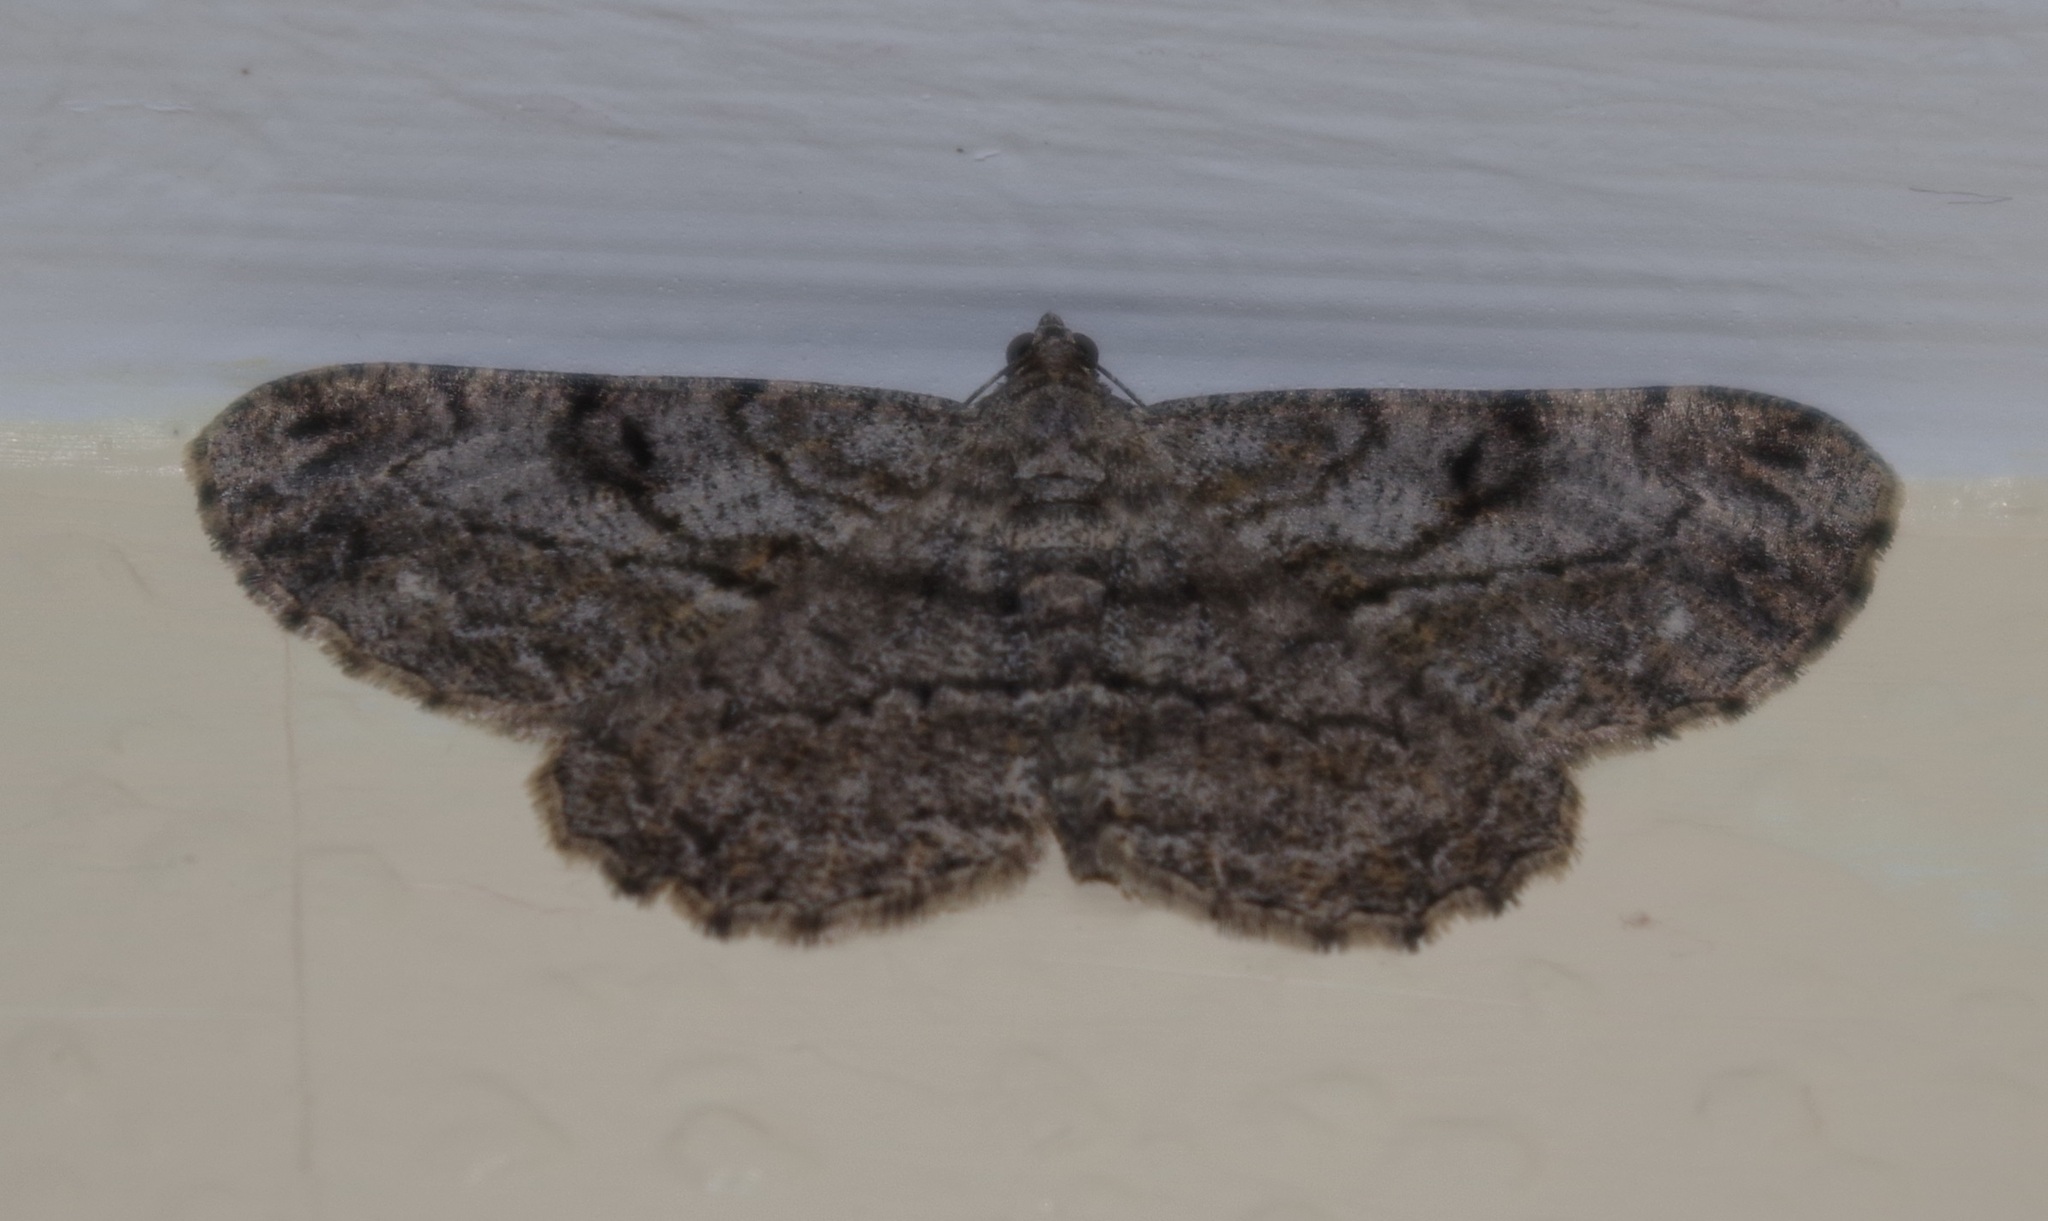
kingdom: Animalia
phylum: Arthropoda
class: Insecta
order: Lepidoptera
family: Geometridae
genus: Peribatodes
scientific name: Peribatodes rhomboidaria
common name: Willow beauty
